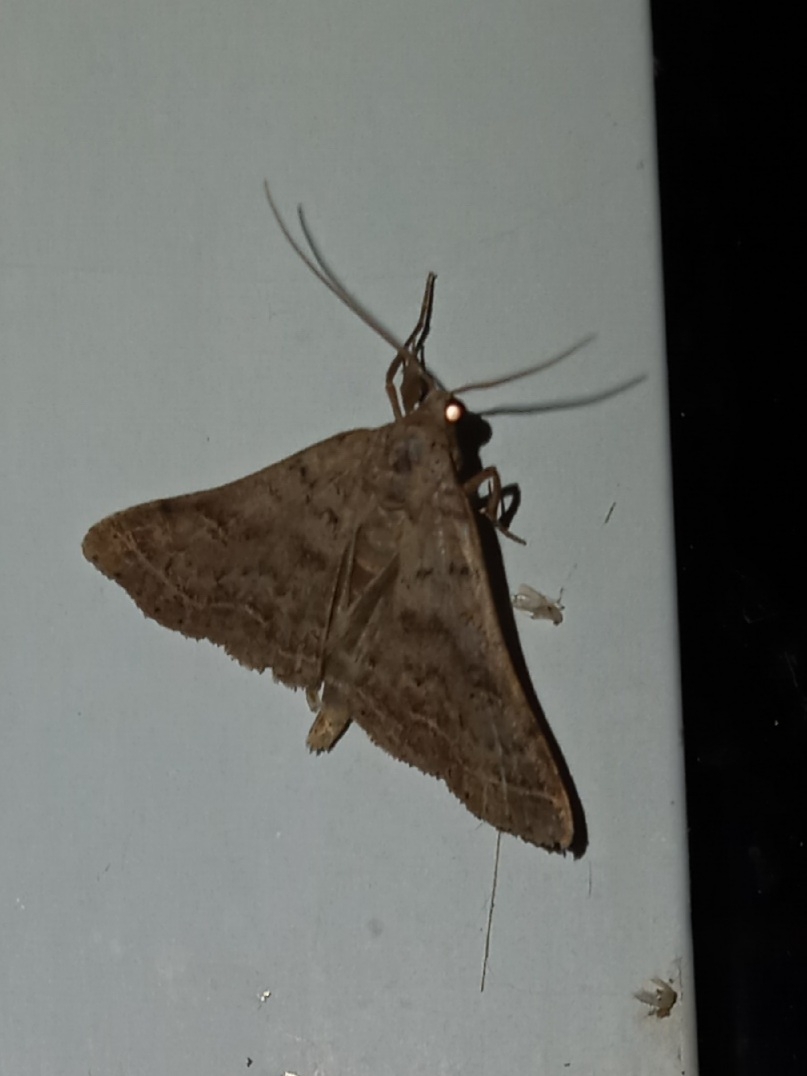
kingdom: Animalia
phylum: Arthropoda
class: Insecta
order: Lepidoptera
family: Erebidae
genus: Bleptina
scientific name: Bleptina caradrinalis
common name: Bent-winged owlet
